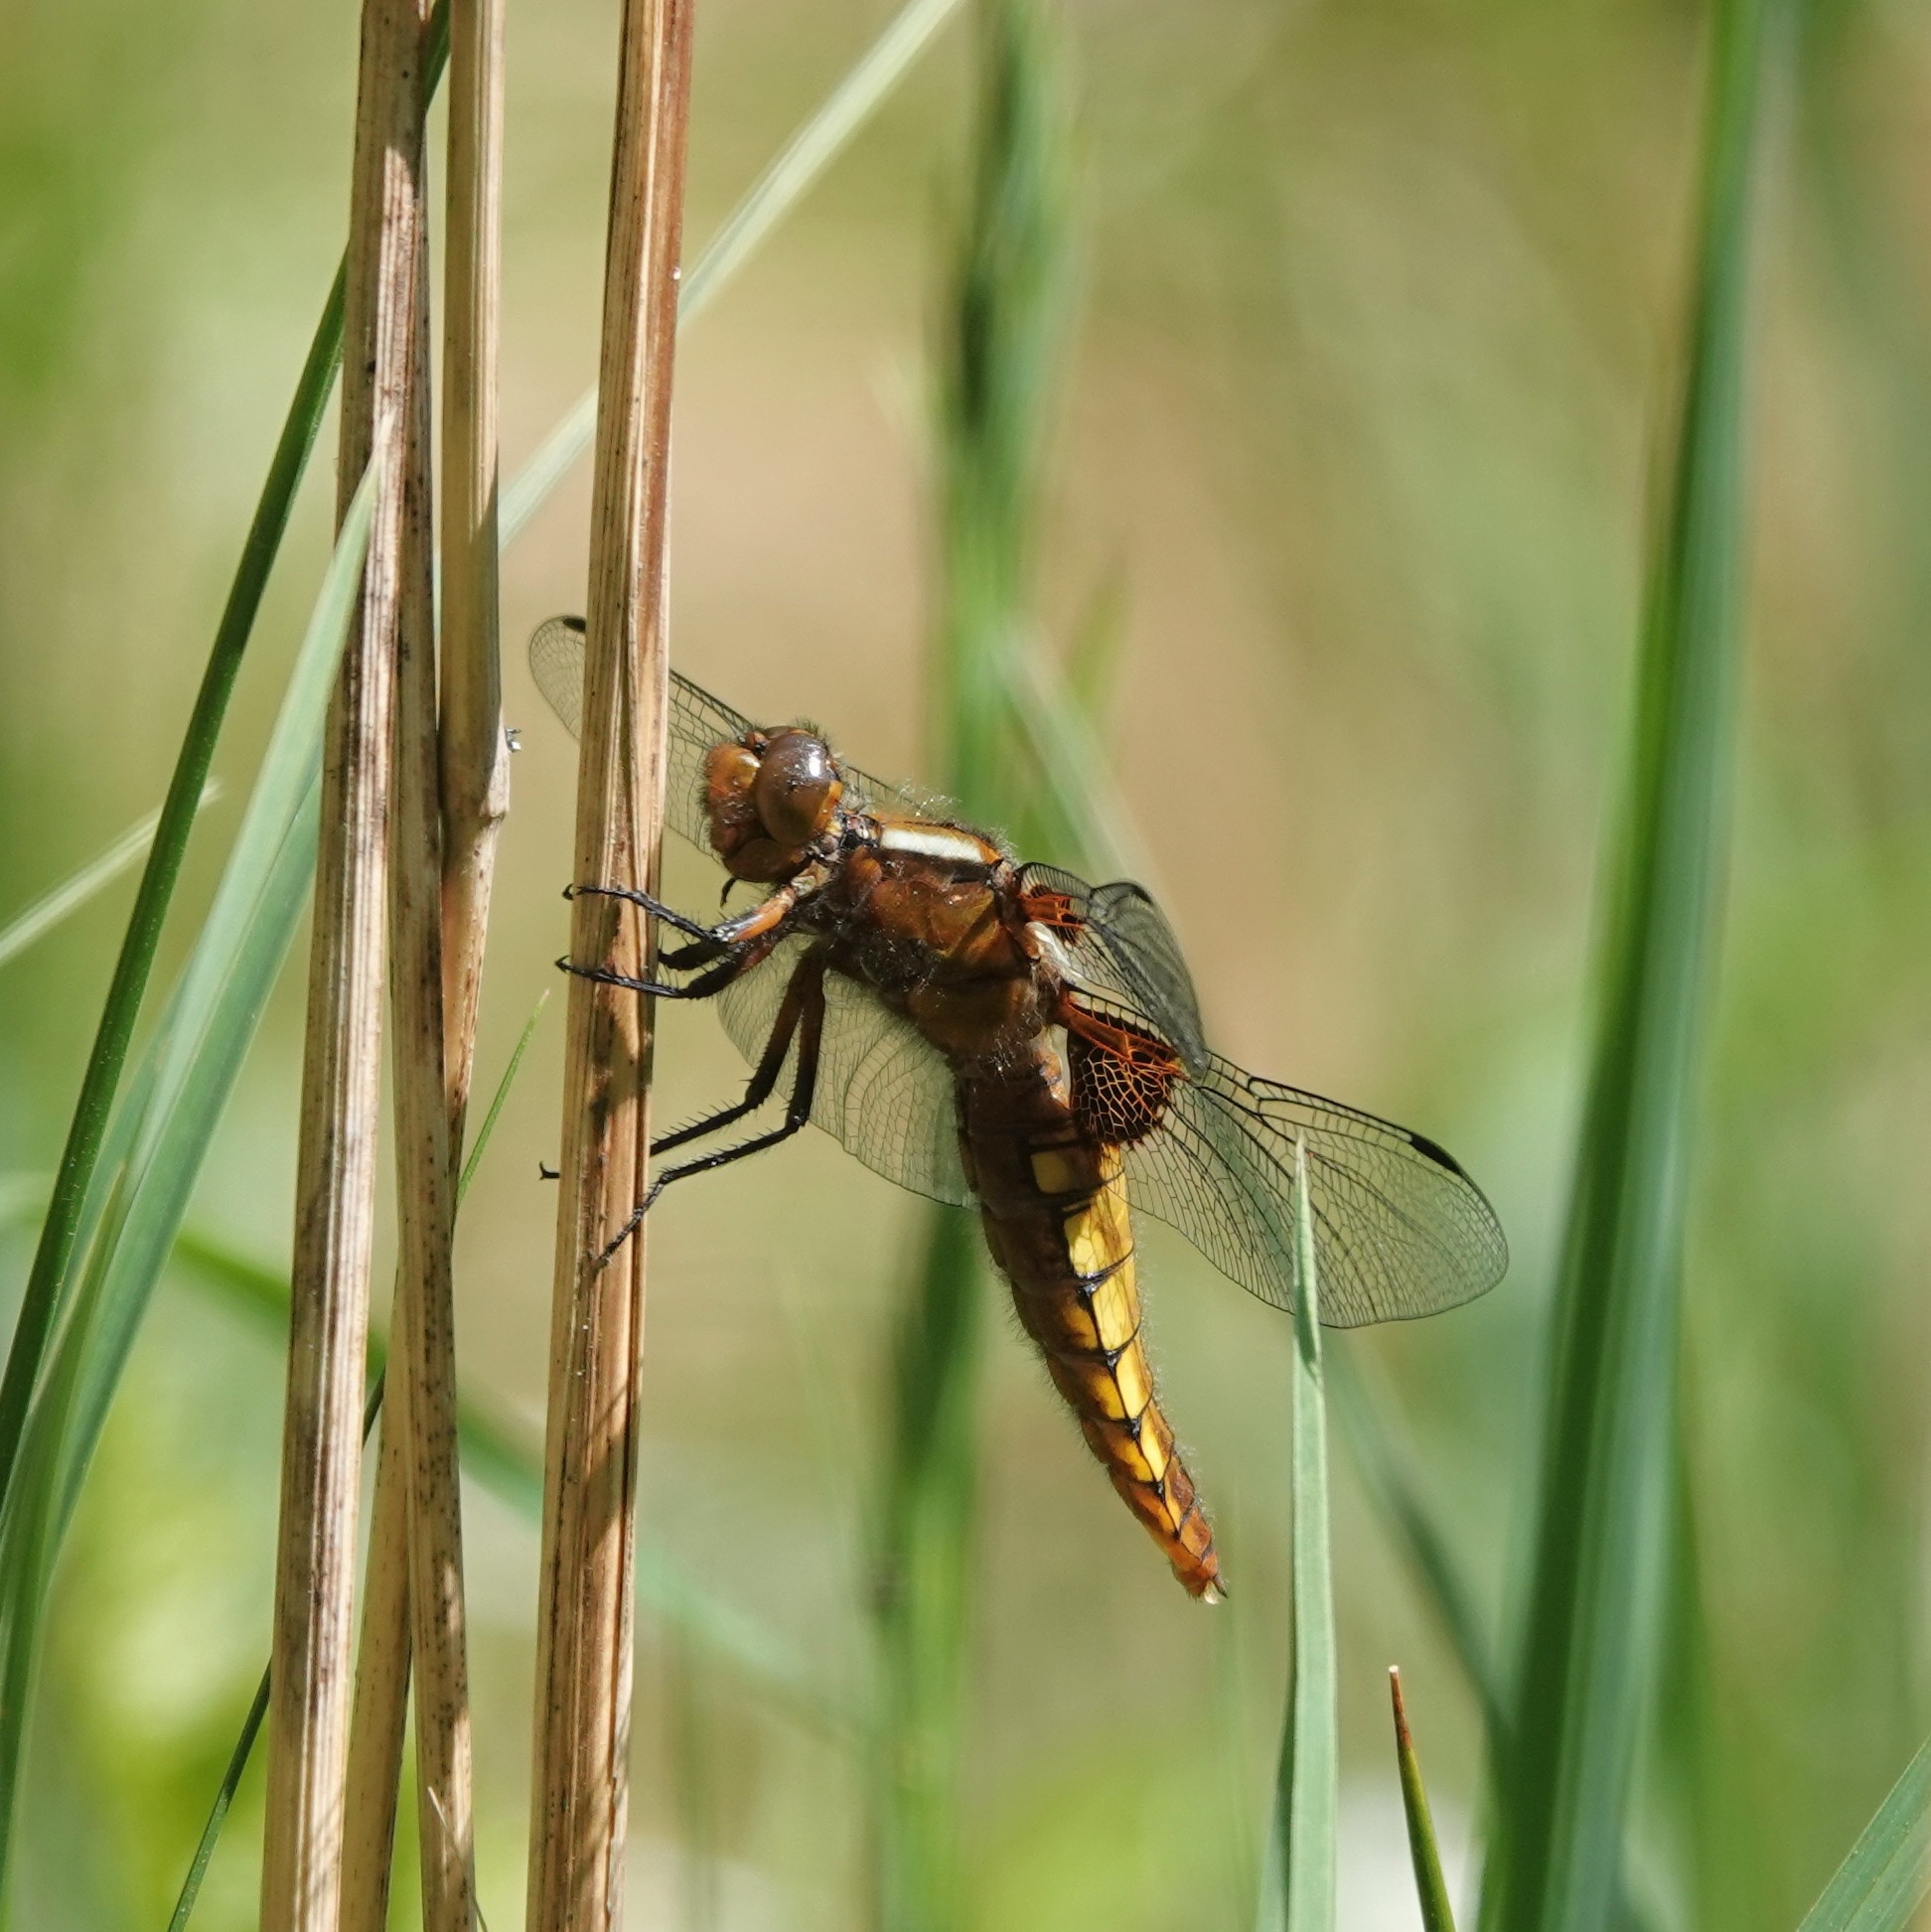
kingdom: Animalia
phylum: Arthropoda
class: Insecta
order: Odonata
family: Libellulidae
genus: Libellula
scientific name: Libellula depressa
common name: Broad-bodied chaser
